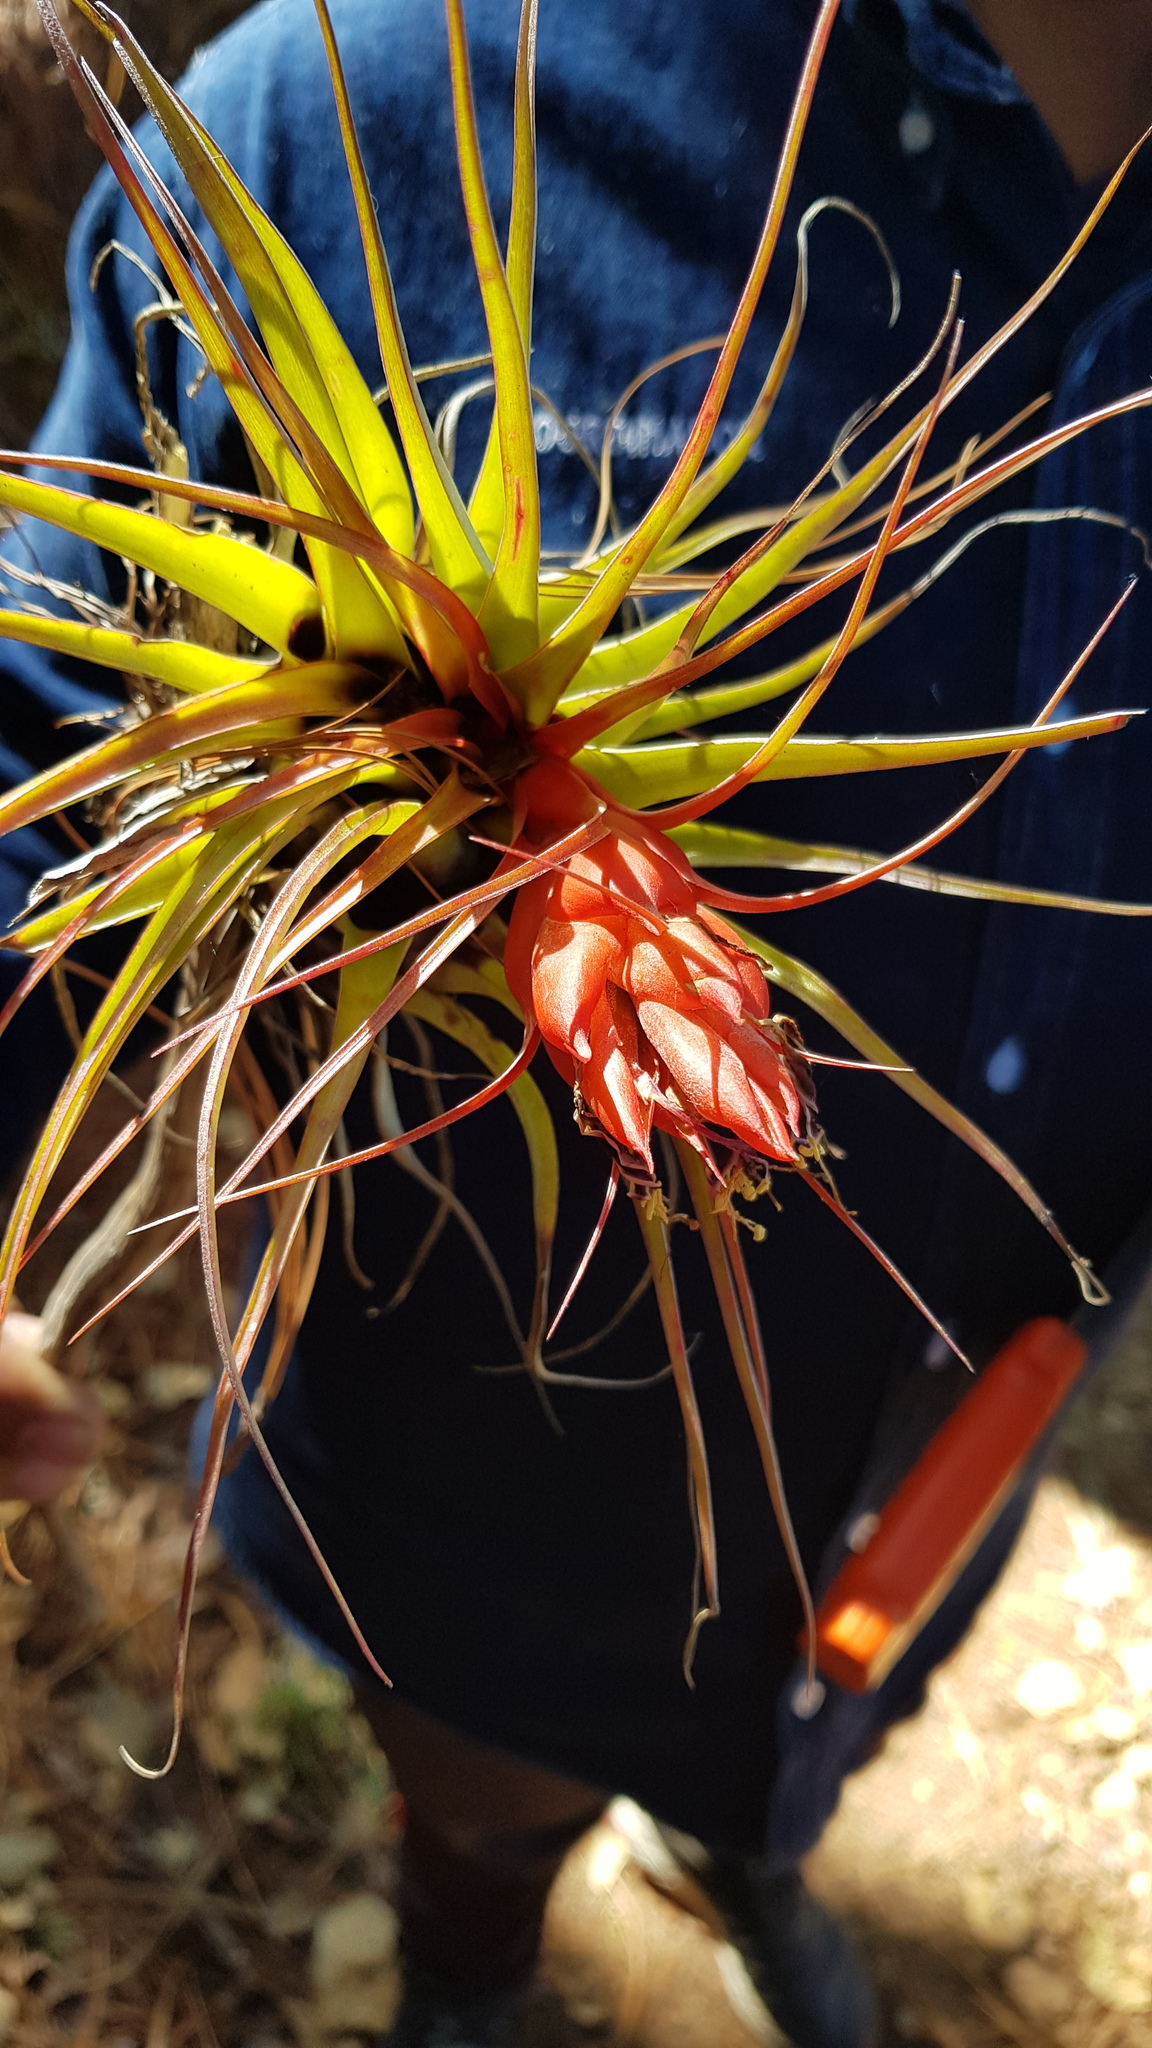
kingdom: Plantae
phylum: Tracheophyta
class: Liliopsida
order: Poales
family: Bromeliaceae
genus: Tillandsia
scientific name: Tillandsia oaxacana
